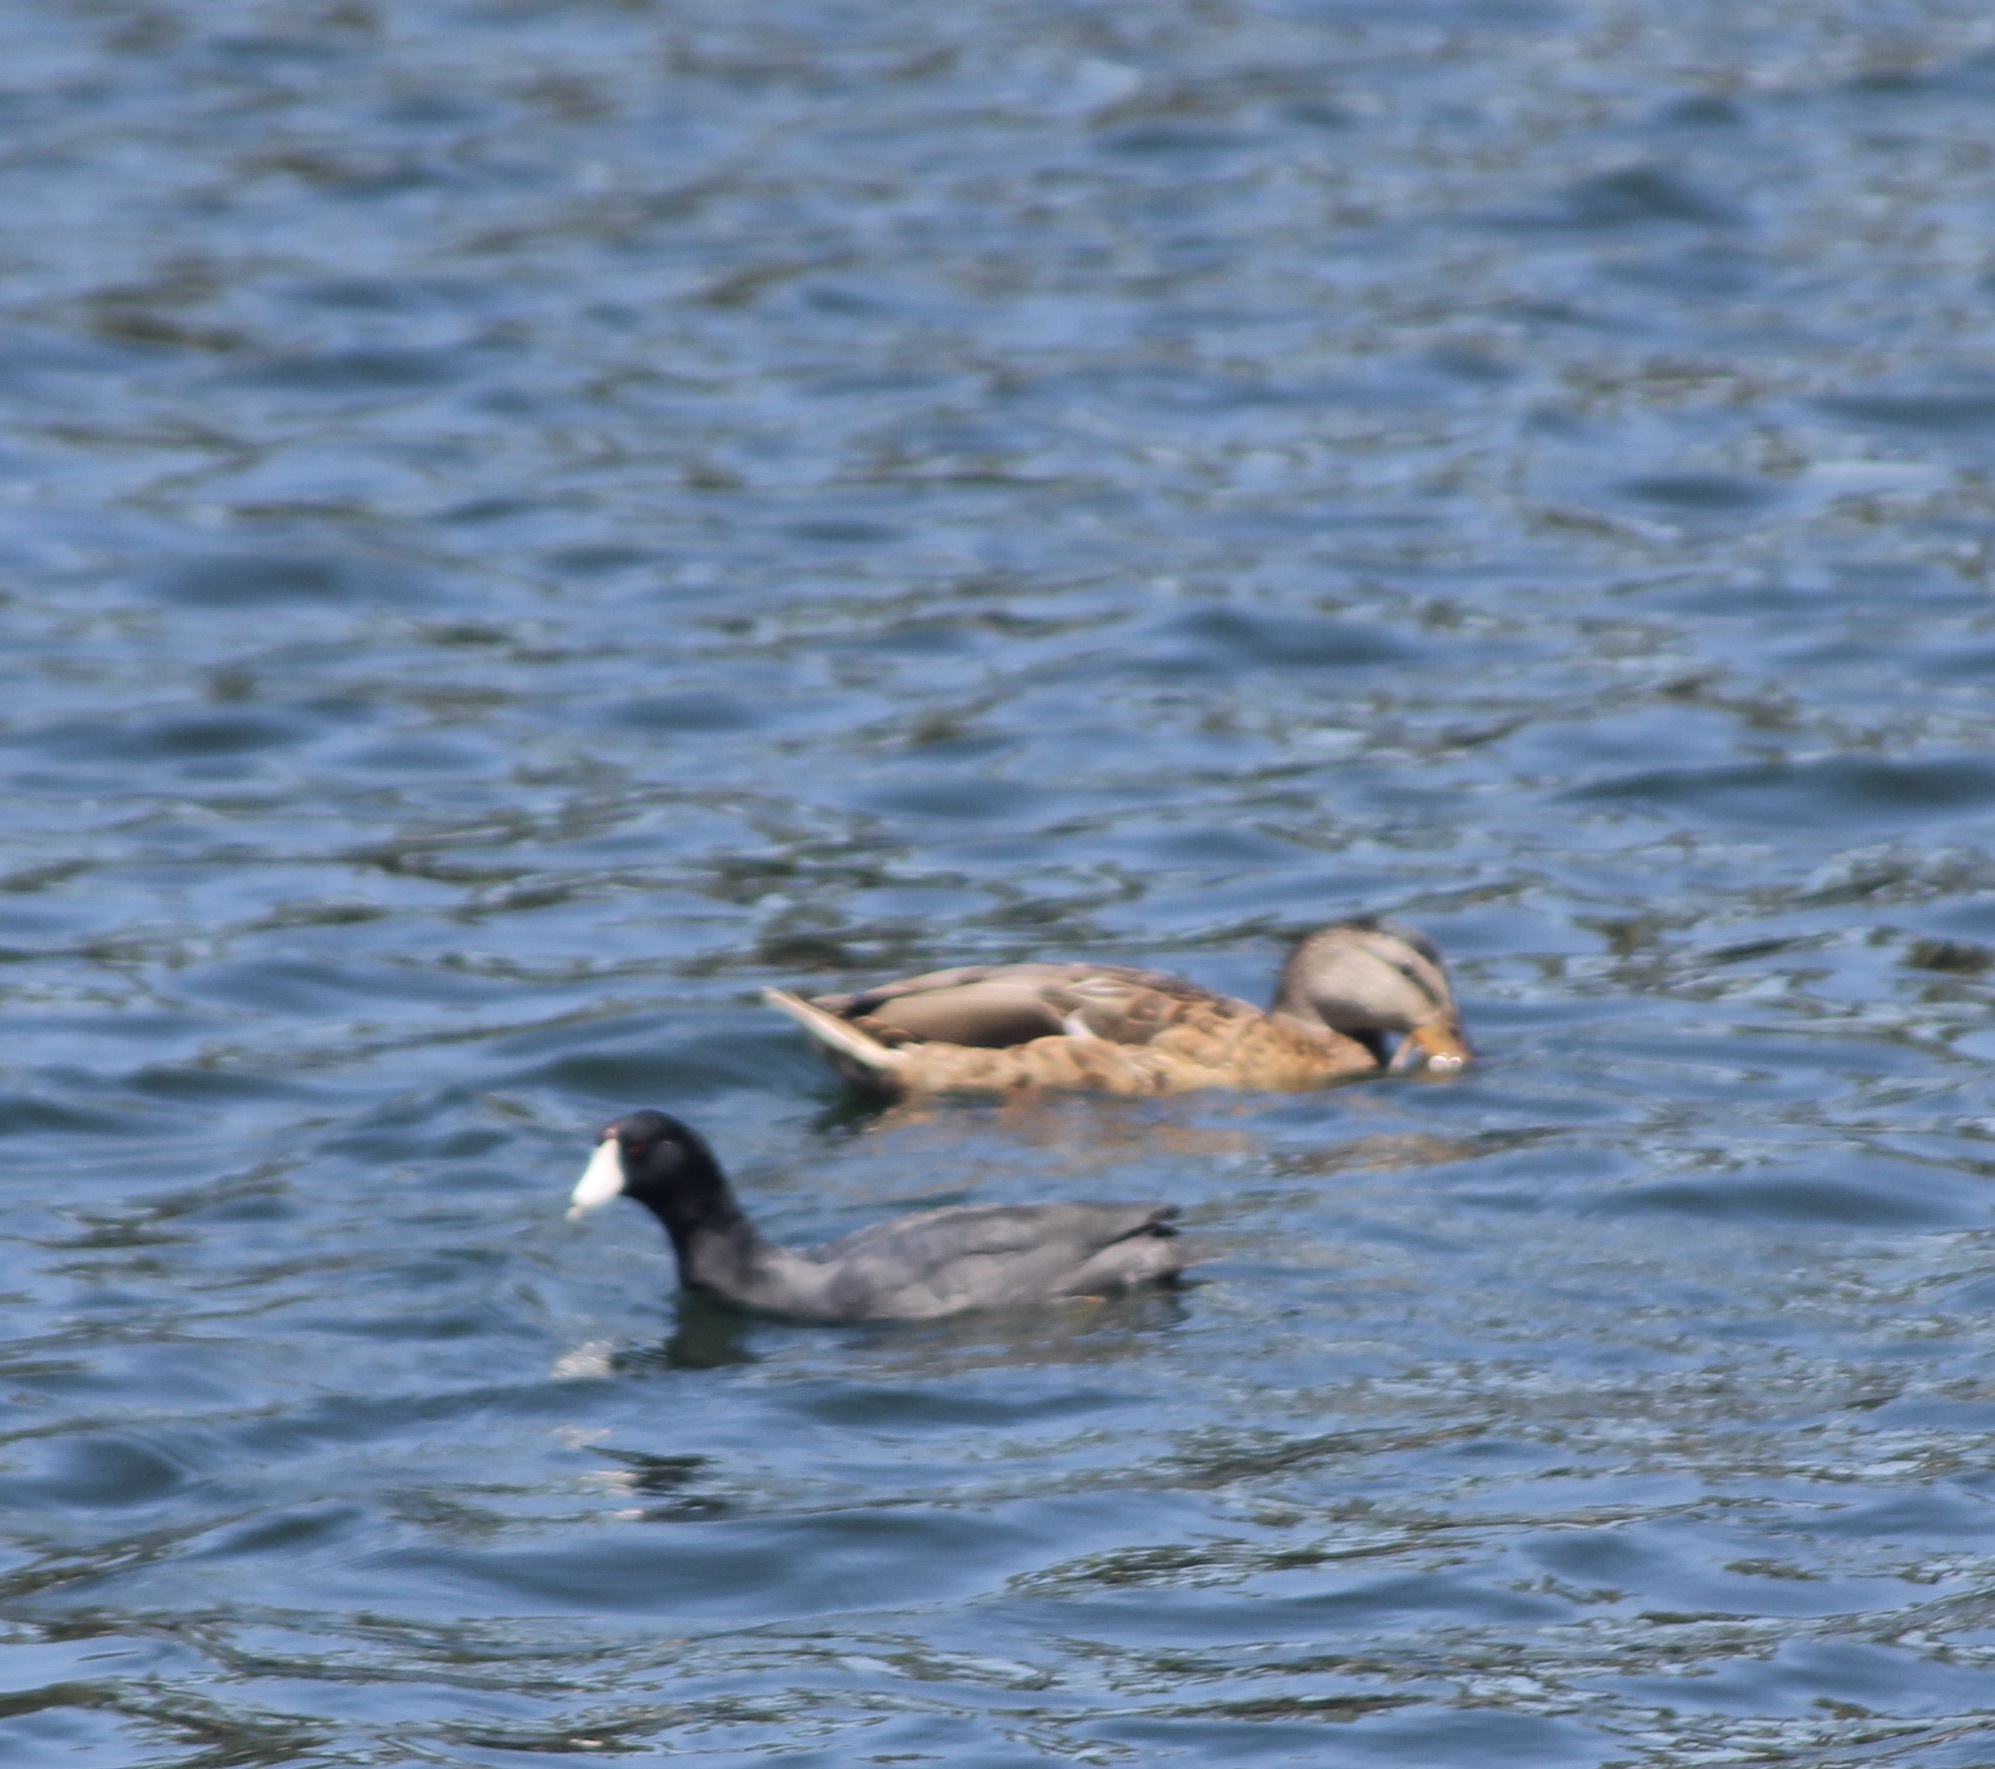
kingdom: Animalia
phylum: Chordata
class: Aves
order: Gruiformes
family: Rallidae
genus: Fulica
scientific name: Fulica americana
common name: American coot
